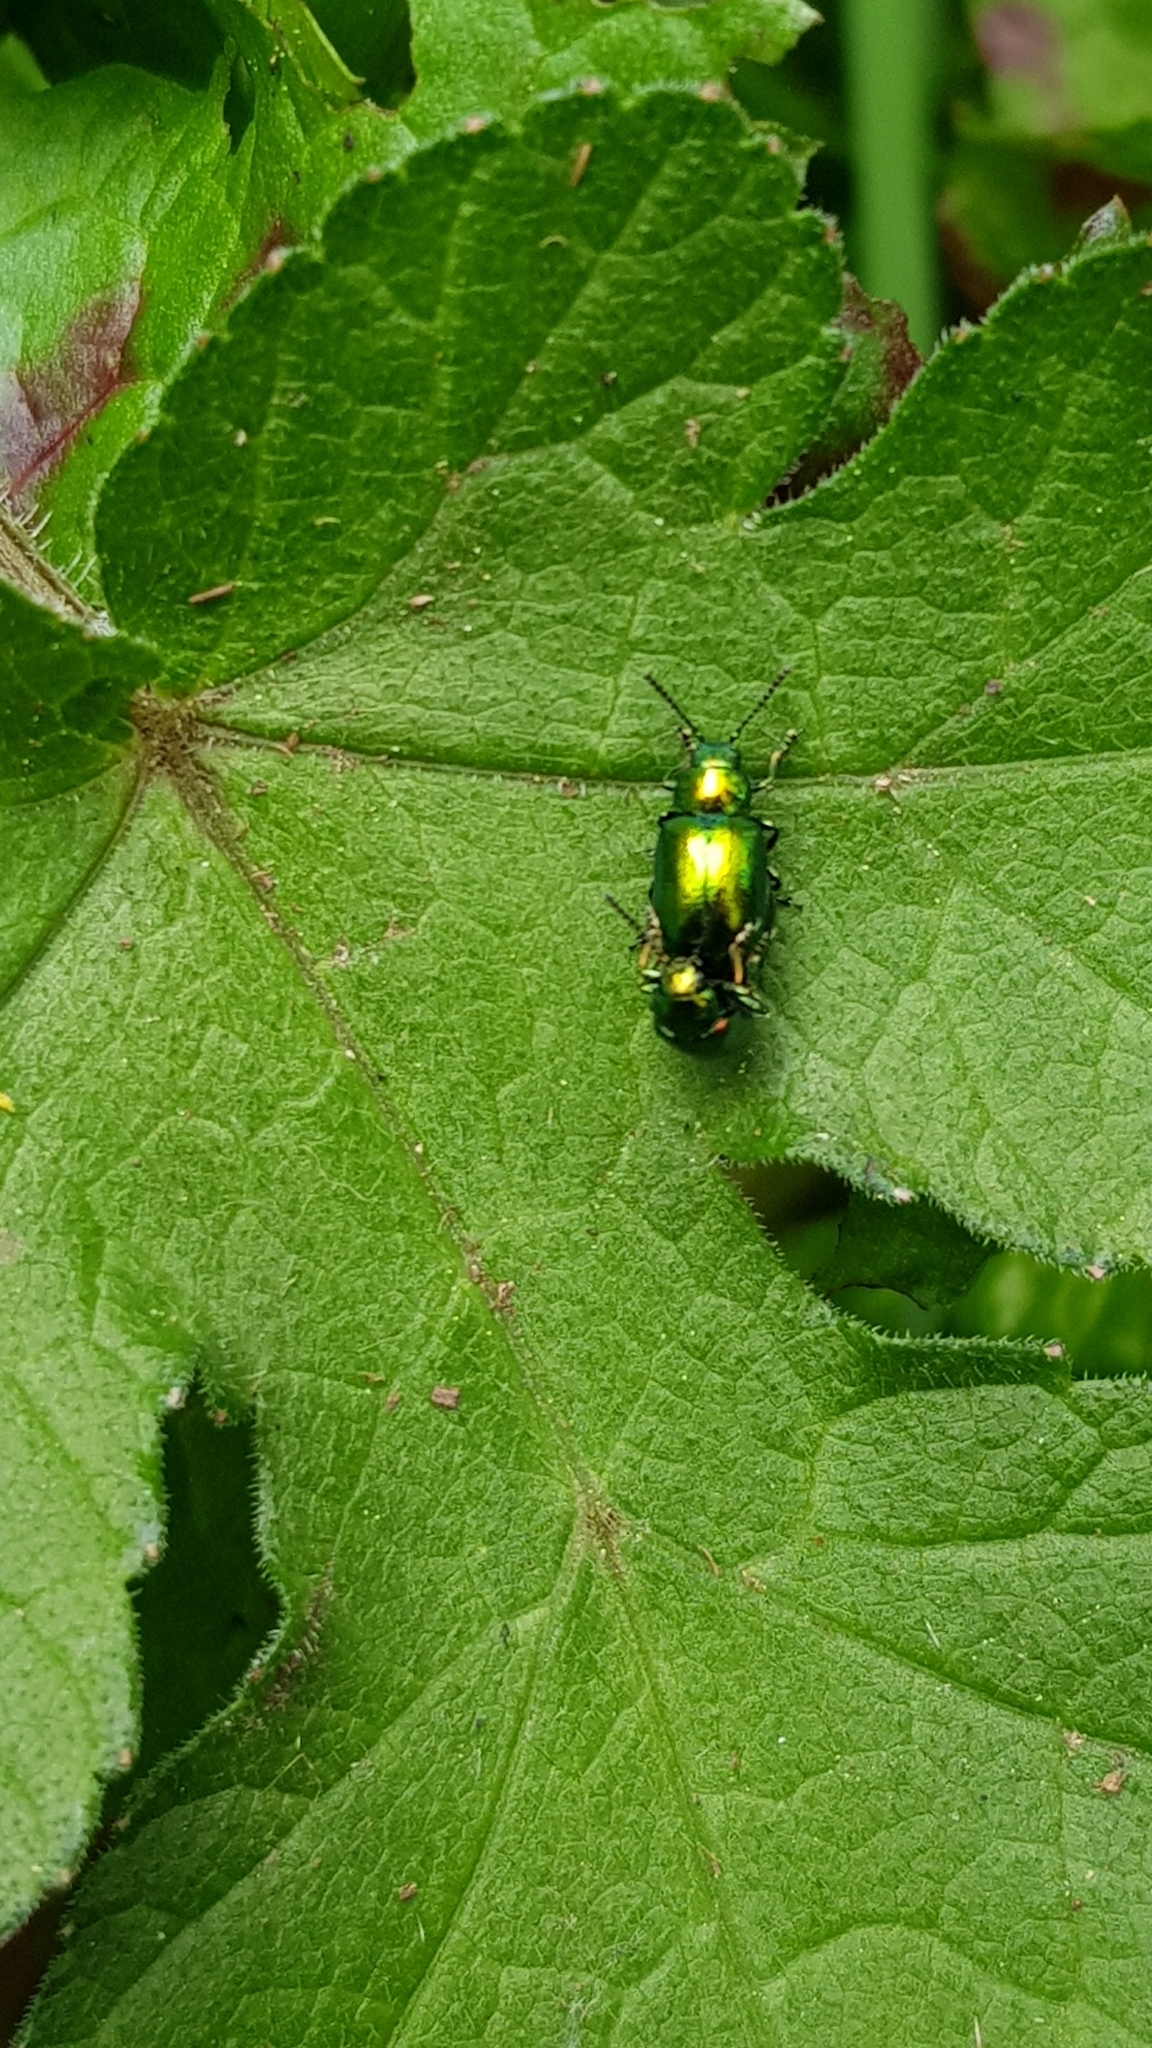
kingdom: Animalia
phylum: Arthropoda
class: Insecta
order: Coleoptera
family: Chrysomelidae
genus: Gastrophysa
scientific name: Gastrophysa viridula
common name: Green dock beetle
